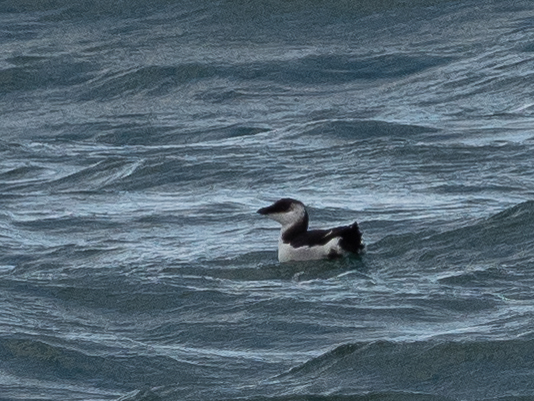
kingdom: Animalia
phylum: Chordata
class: Aves
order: Charadriiformes
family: Alcidae
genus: Alca
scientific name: Alca torda
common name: Razorbill
